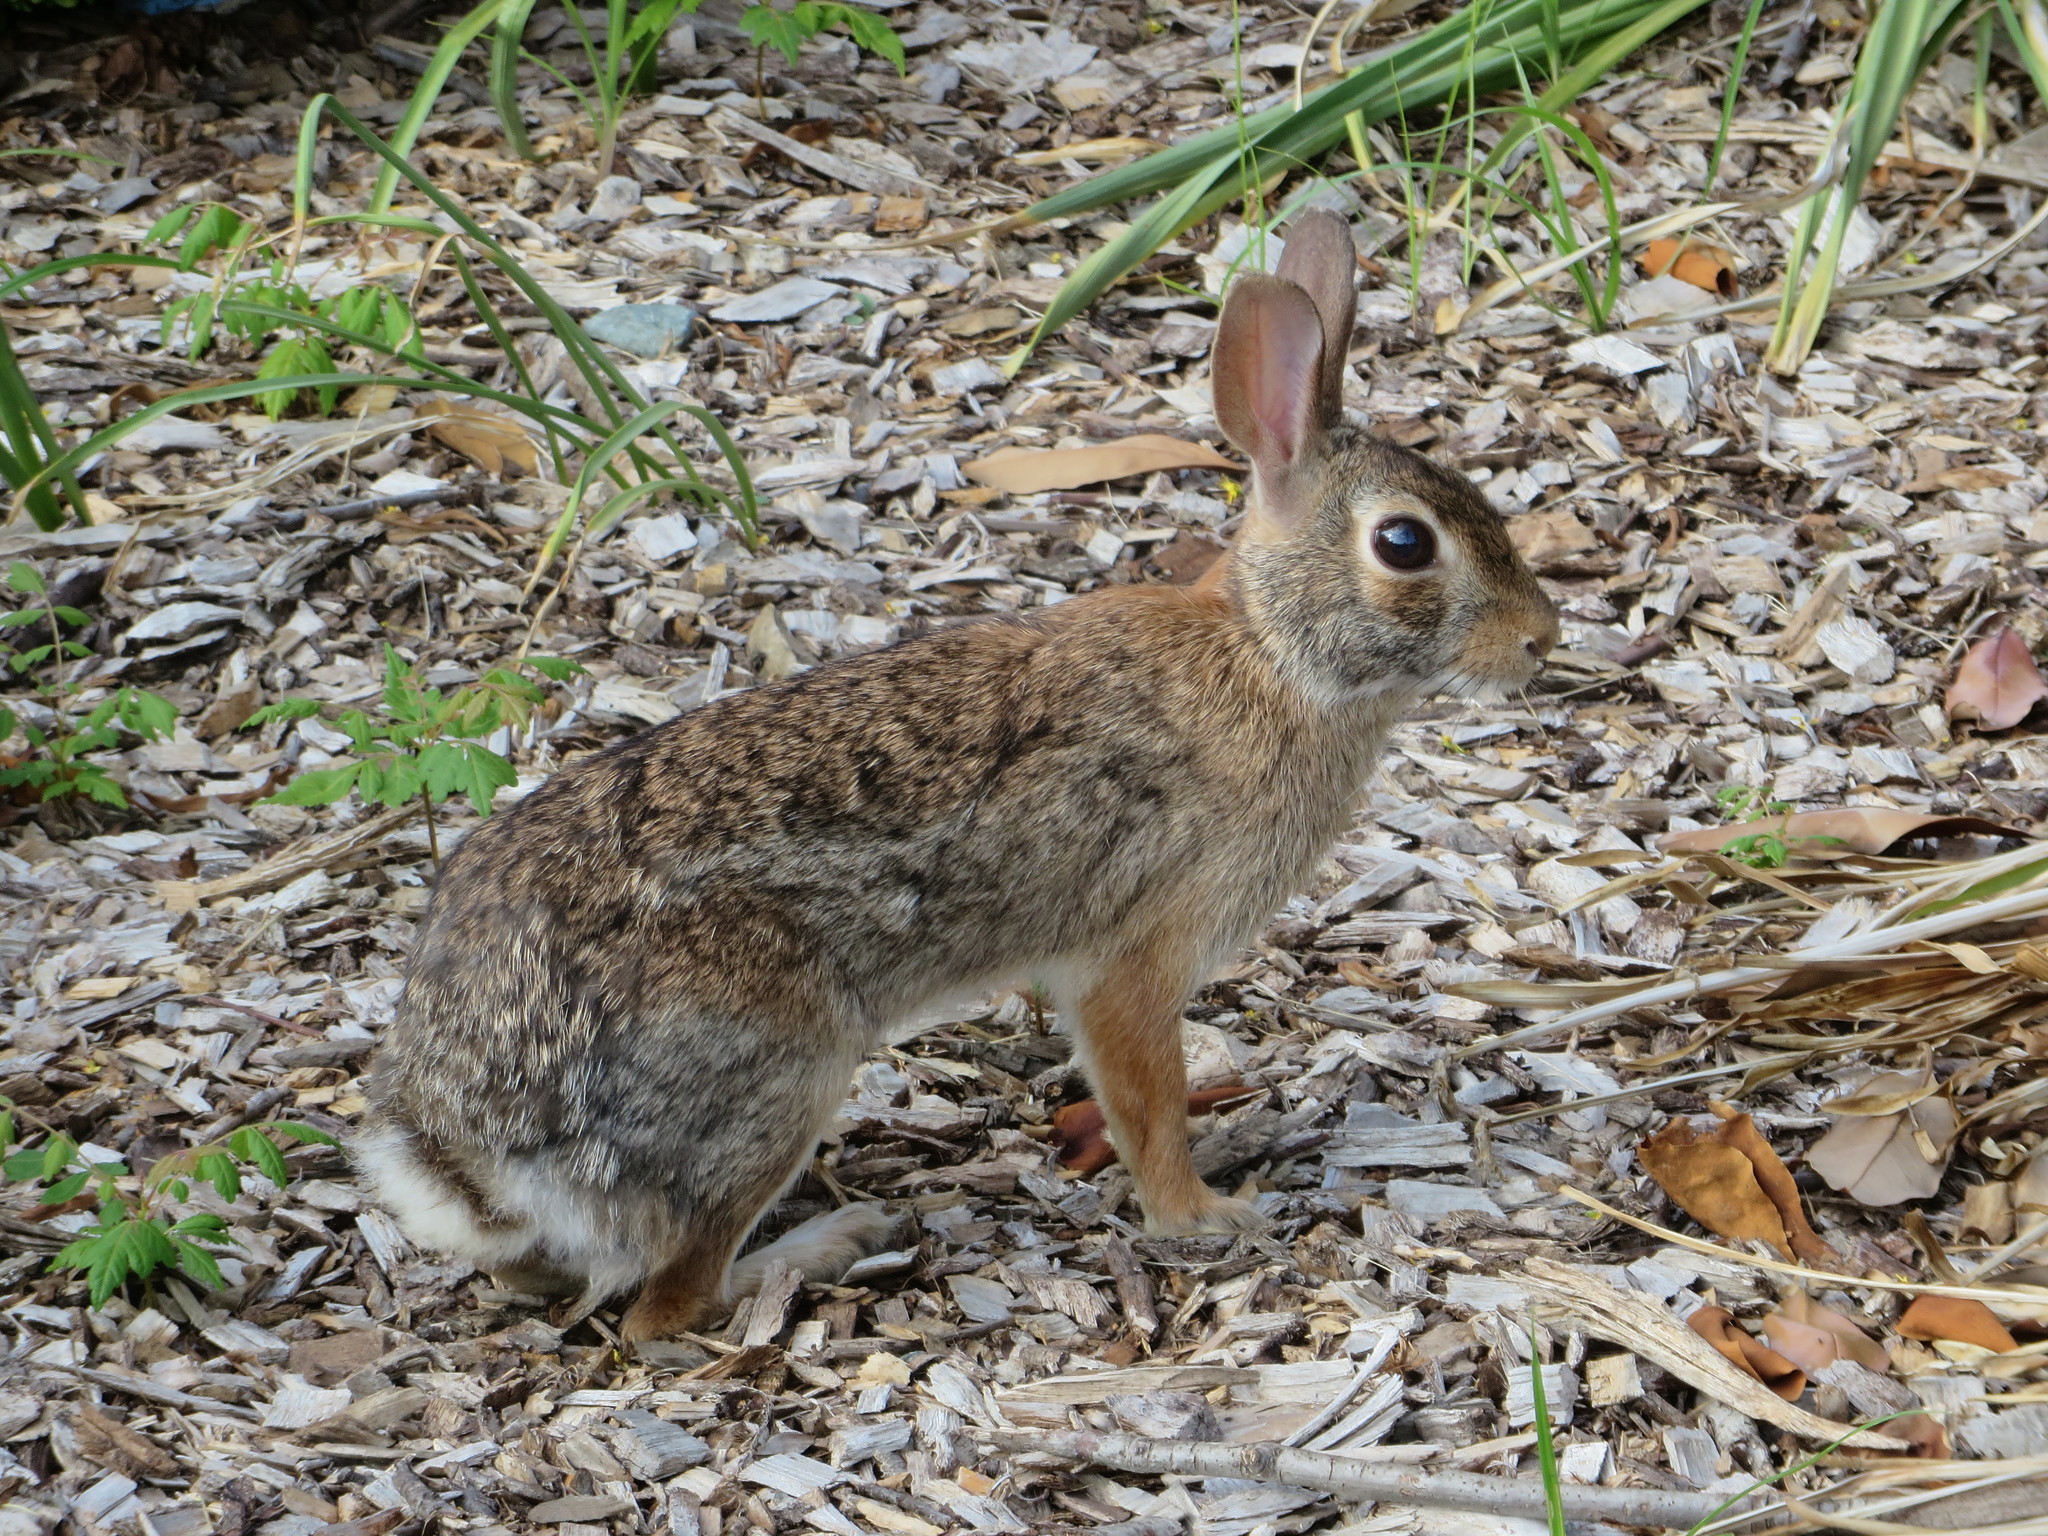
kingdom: Animalia
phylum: Chordata
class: Mammalia
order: Lagomorpha
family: Leporidae
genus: Sylvilagus
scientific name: Sylvilagus floridanus
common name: Eastern cottontail
